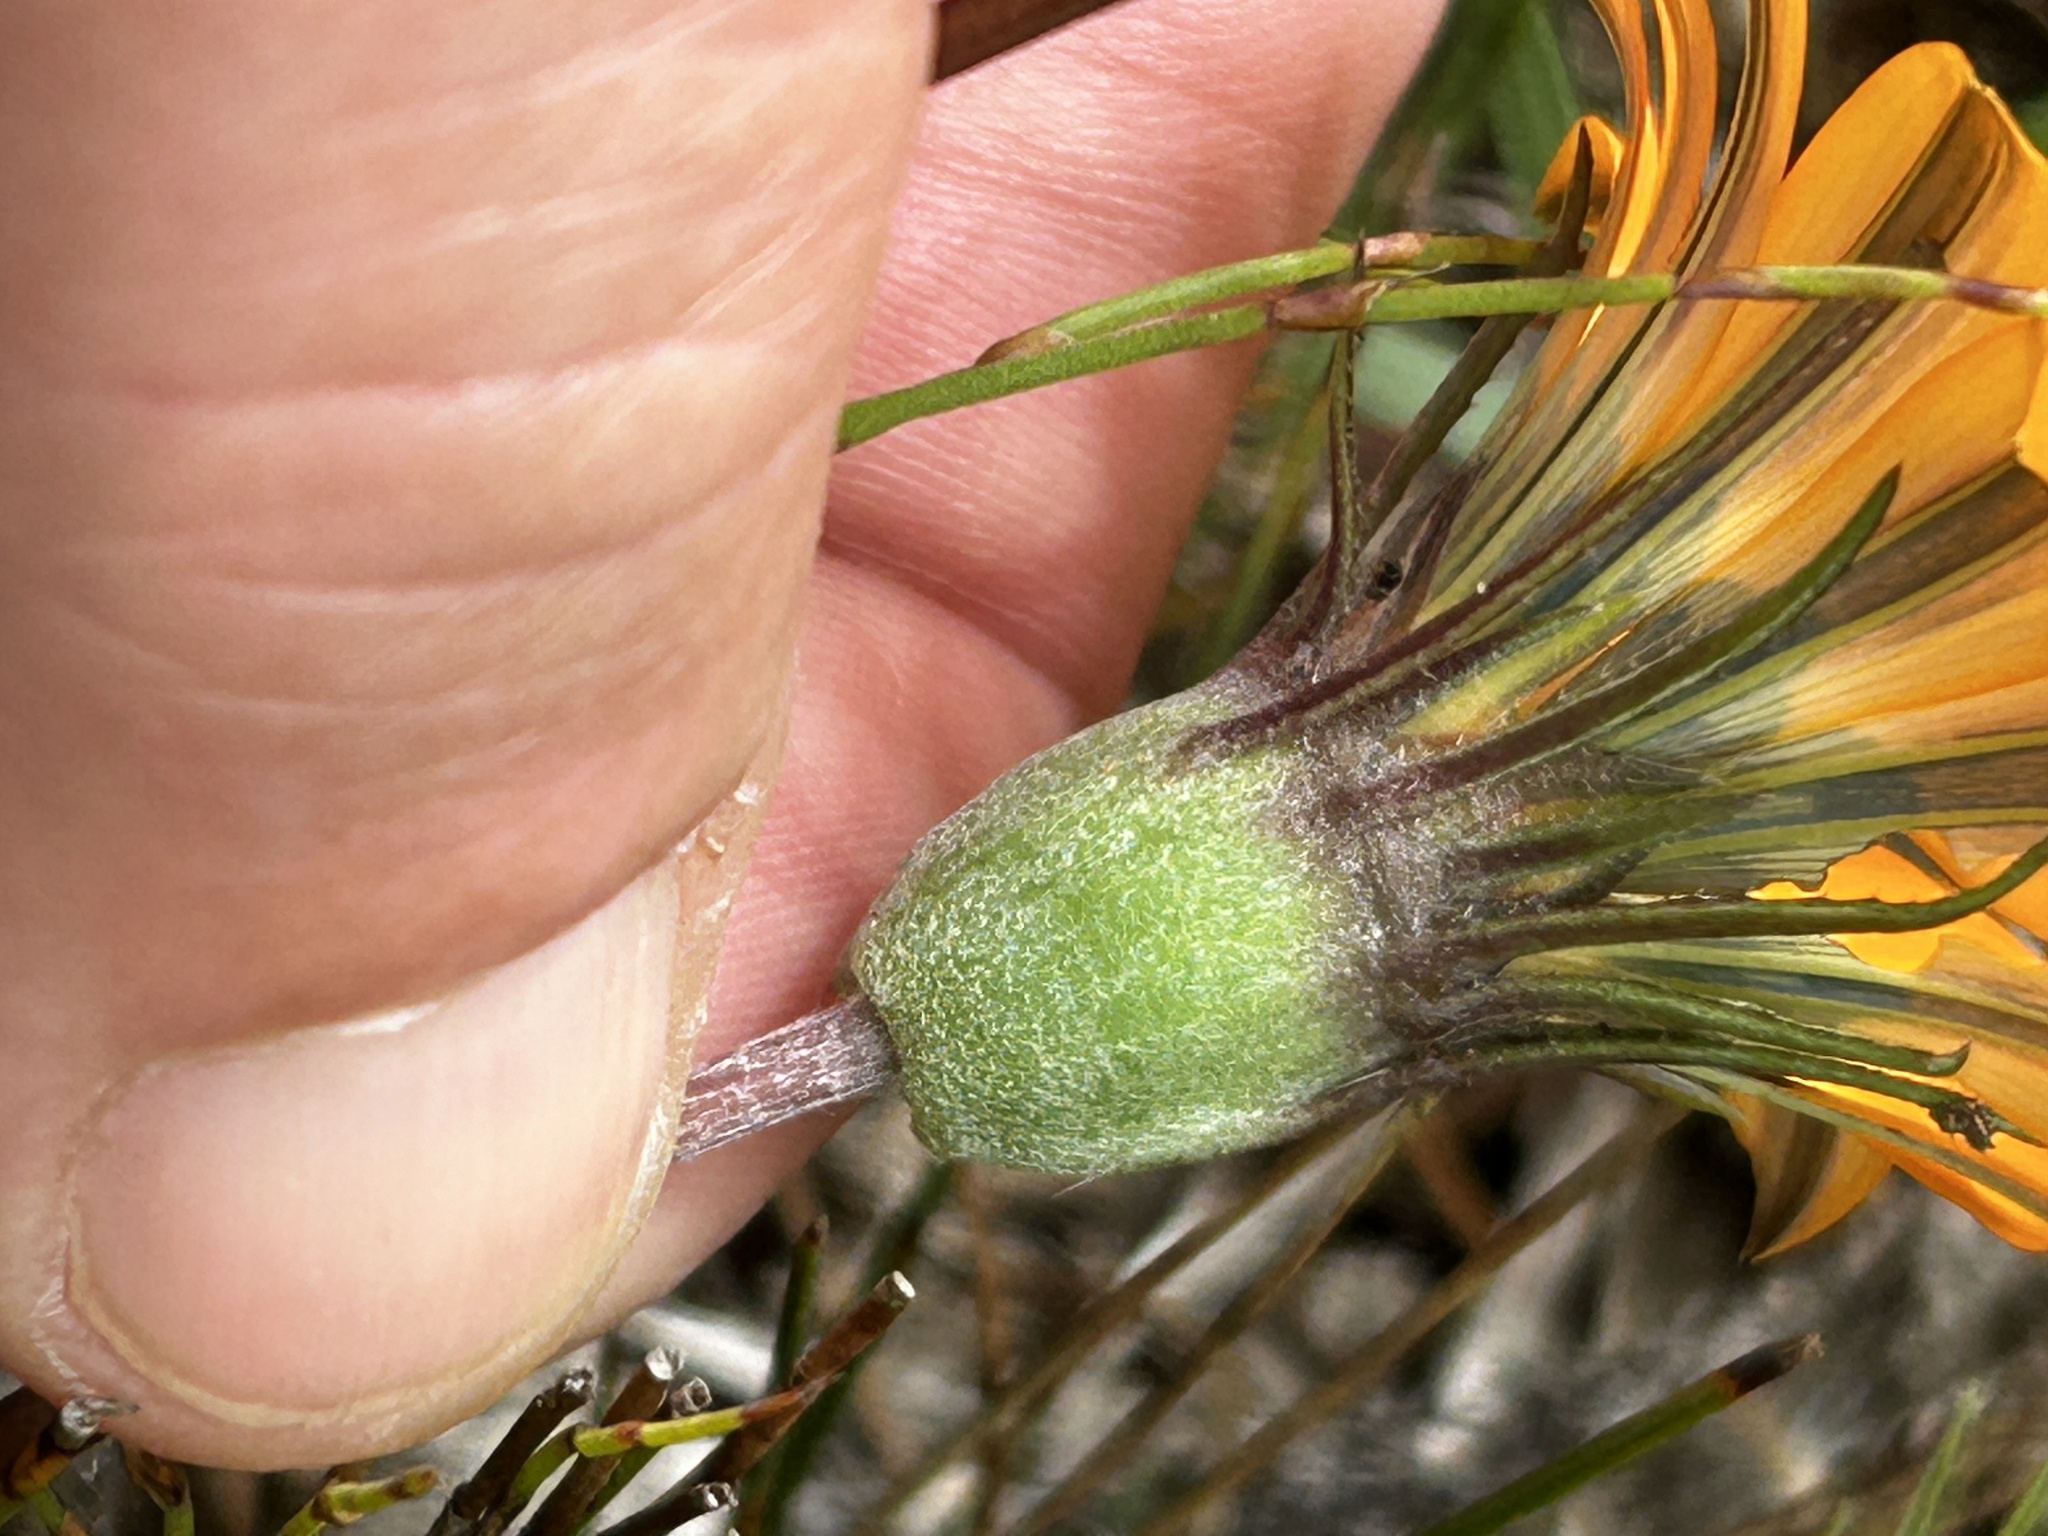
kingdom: Plantae
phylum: Tracheophyta
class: Magnoliopsida
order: Asterales
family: Asteraceae
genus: Gazania
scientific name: Gazania pectinata
